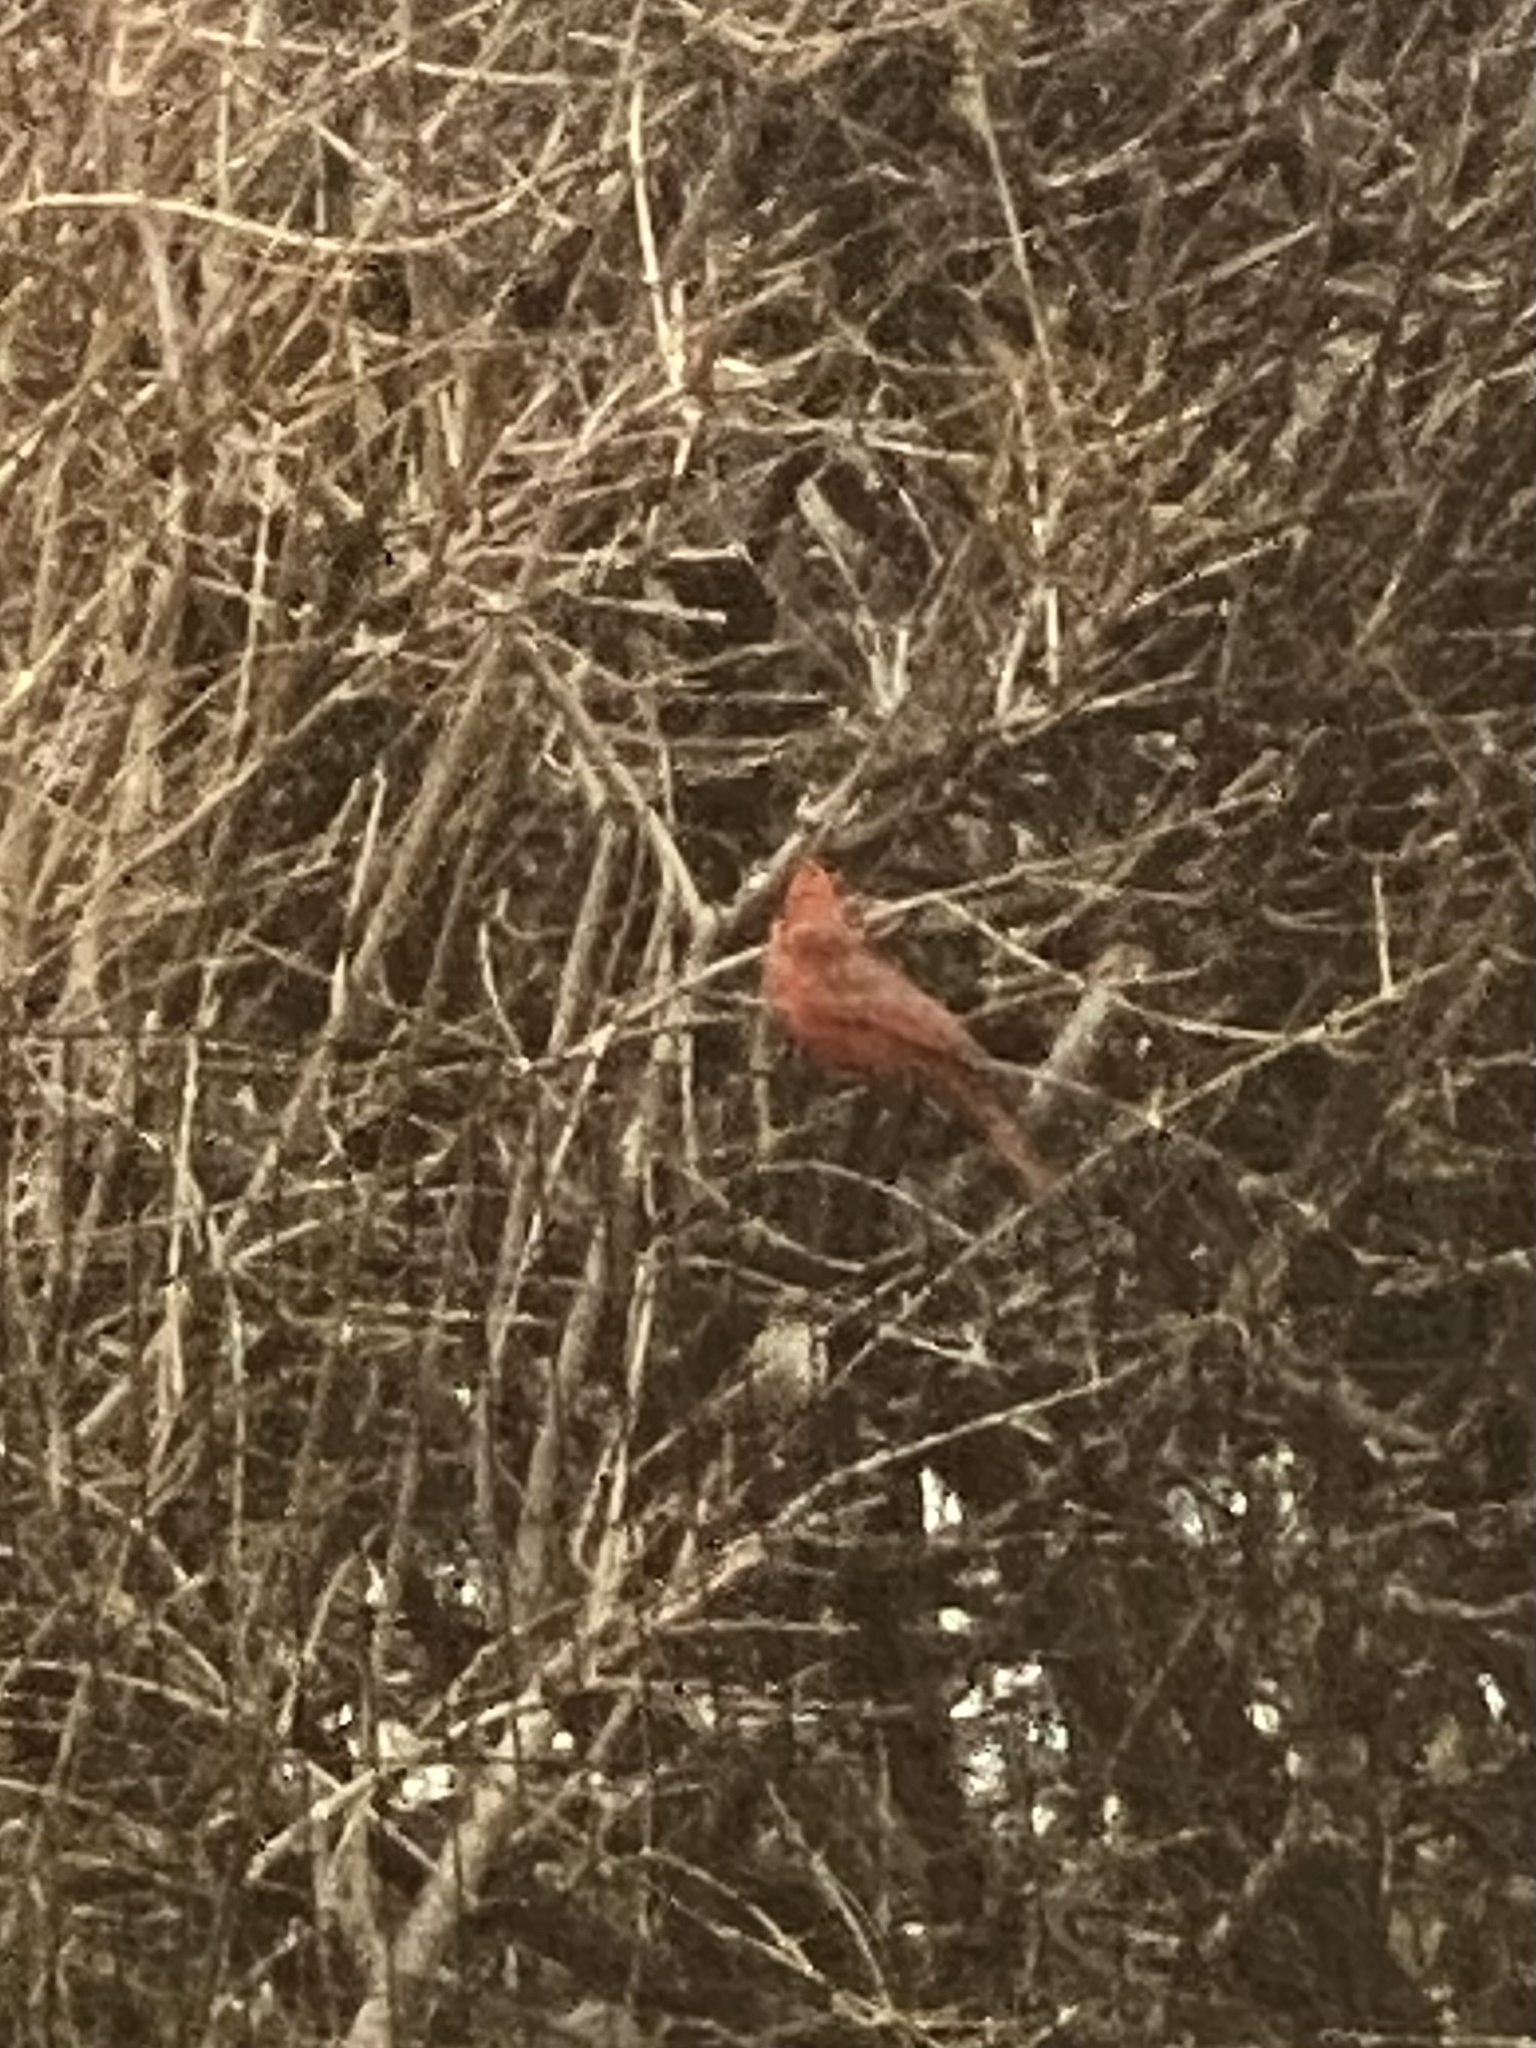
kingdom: Animalia
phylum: Chordata
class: Aves
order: Passeriformes
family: Cardinalidae
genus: Cardinalis
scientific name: Cardinalis cardinalis
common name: Northern cardinal
